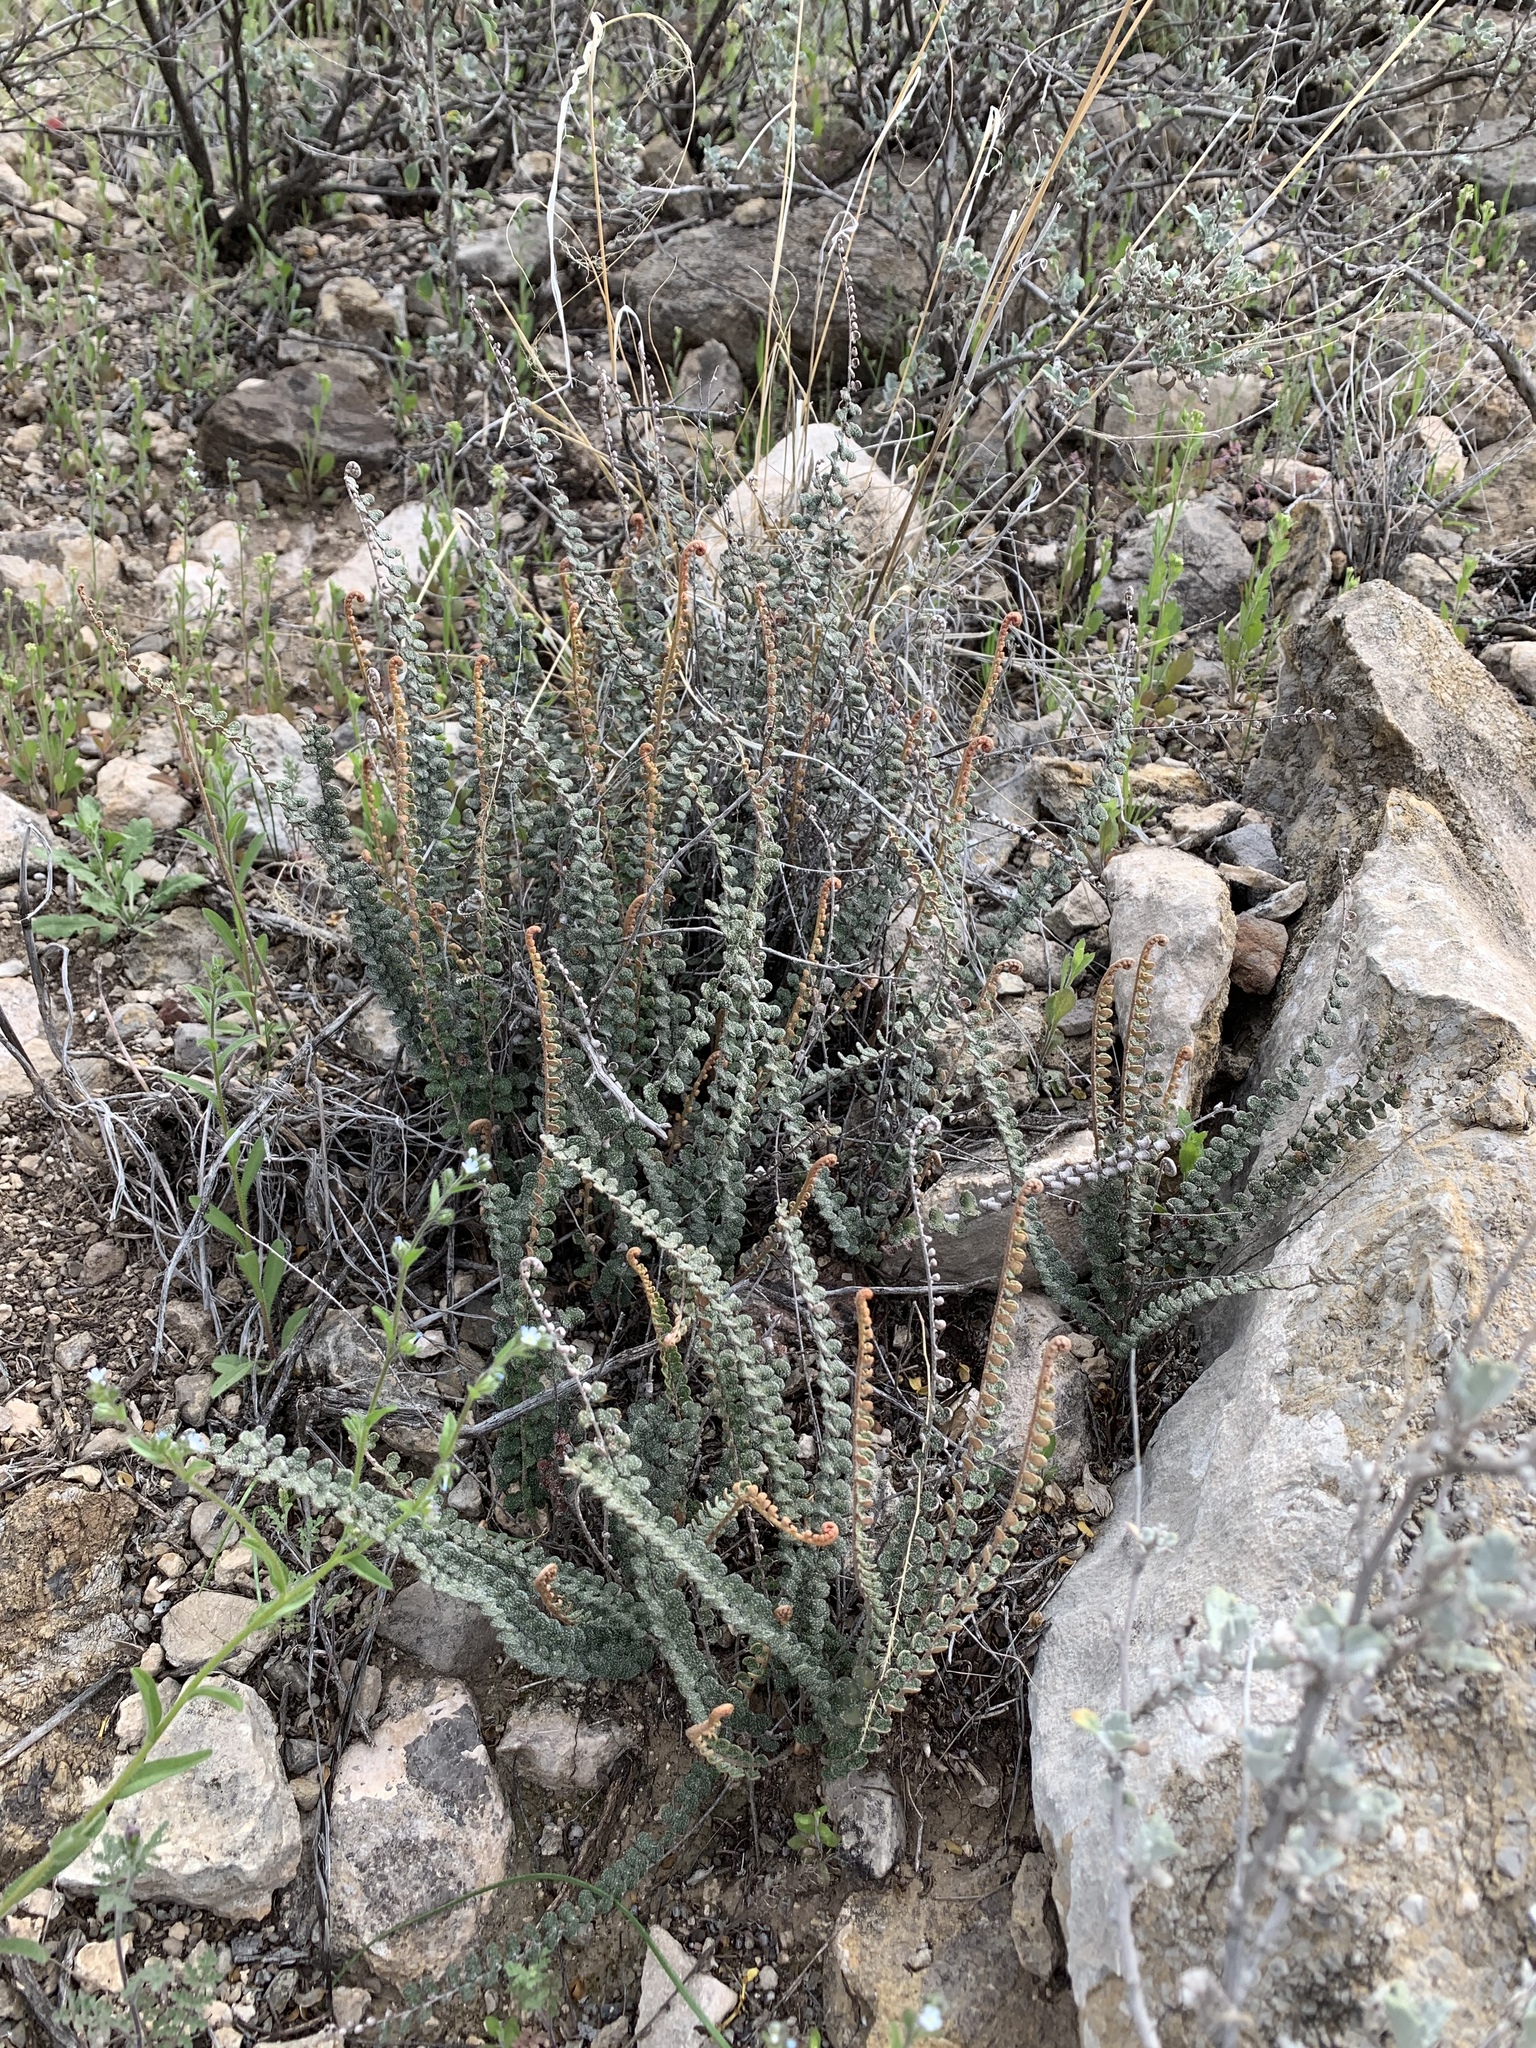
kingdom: Plantae
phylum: Tracheophyta
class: Polypodiopsida
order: Polypodiales
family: Pteridaceae
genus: Astrolepis
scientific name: Astrolepis cochisensis
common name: Scaly cloak fern
